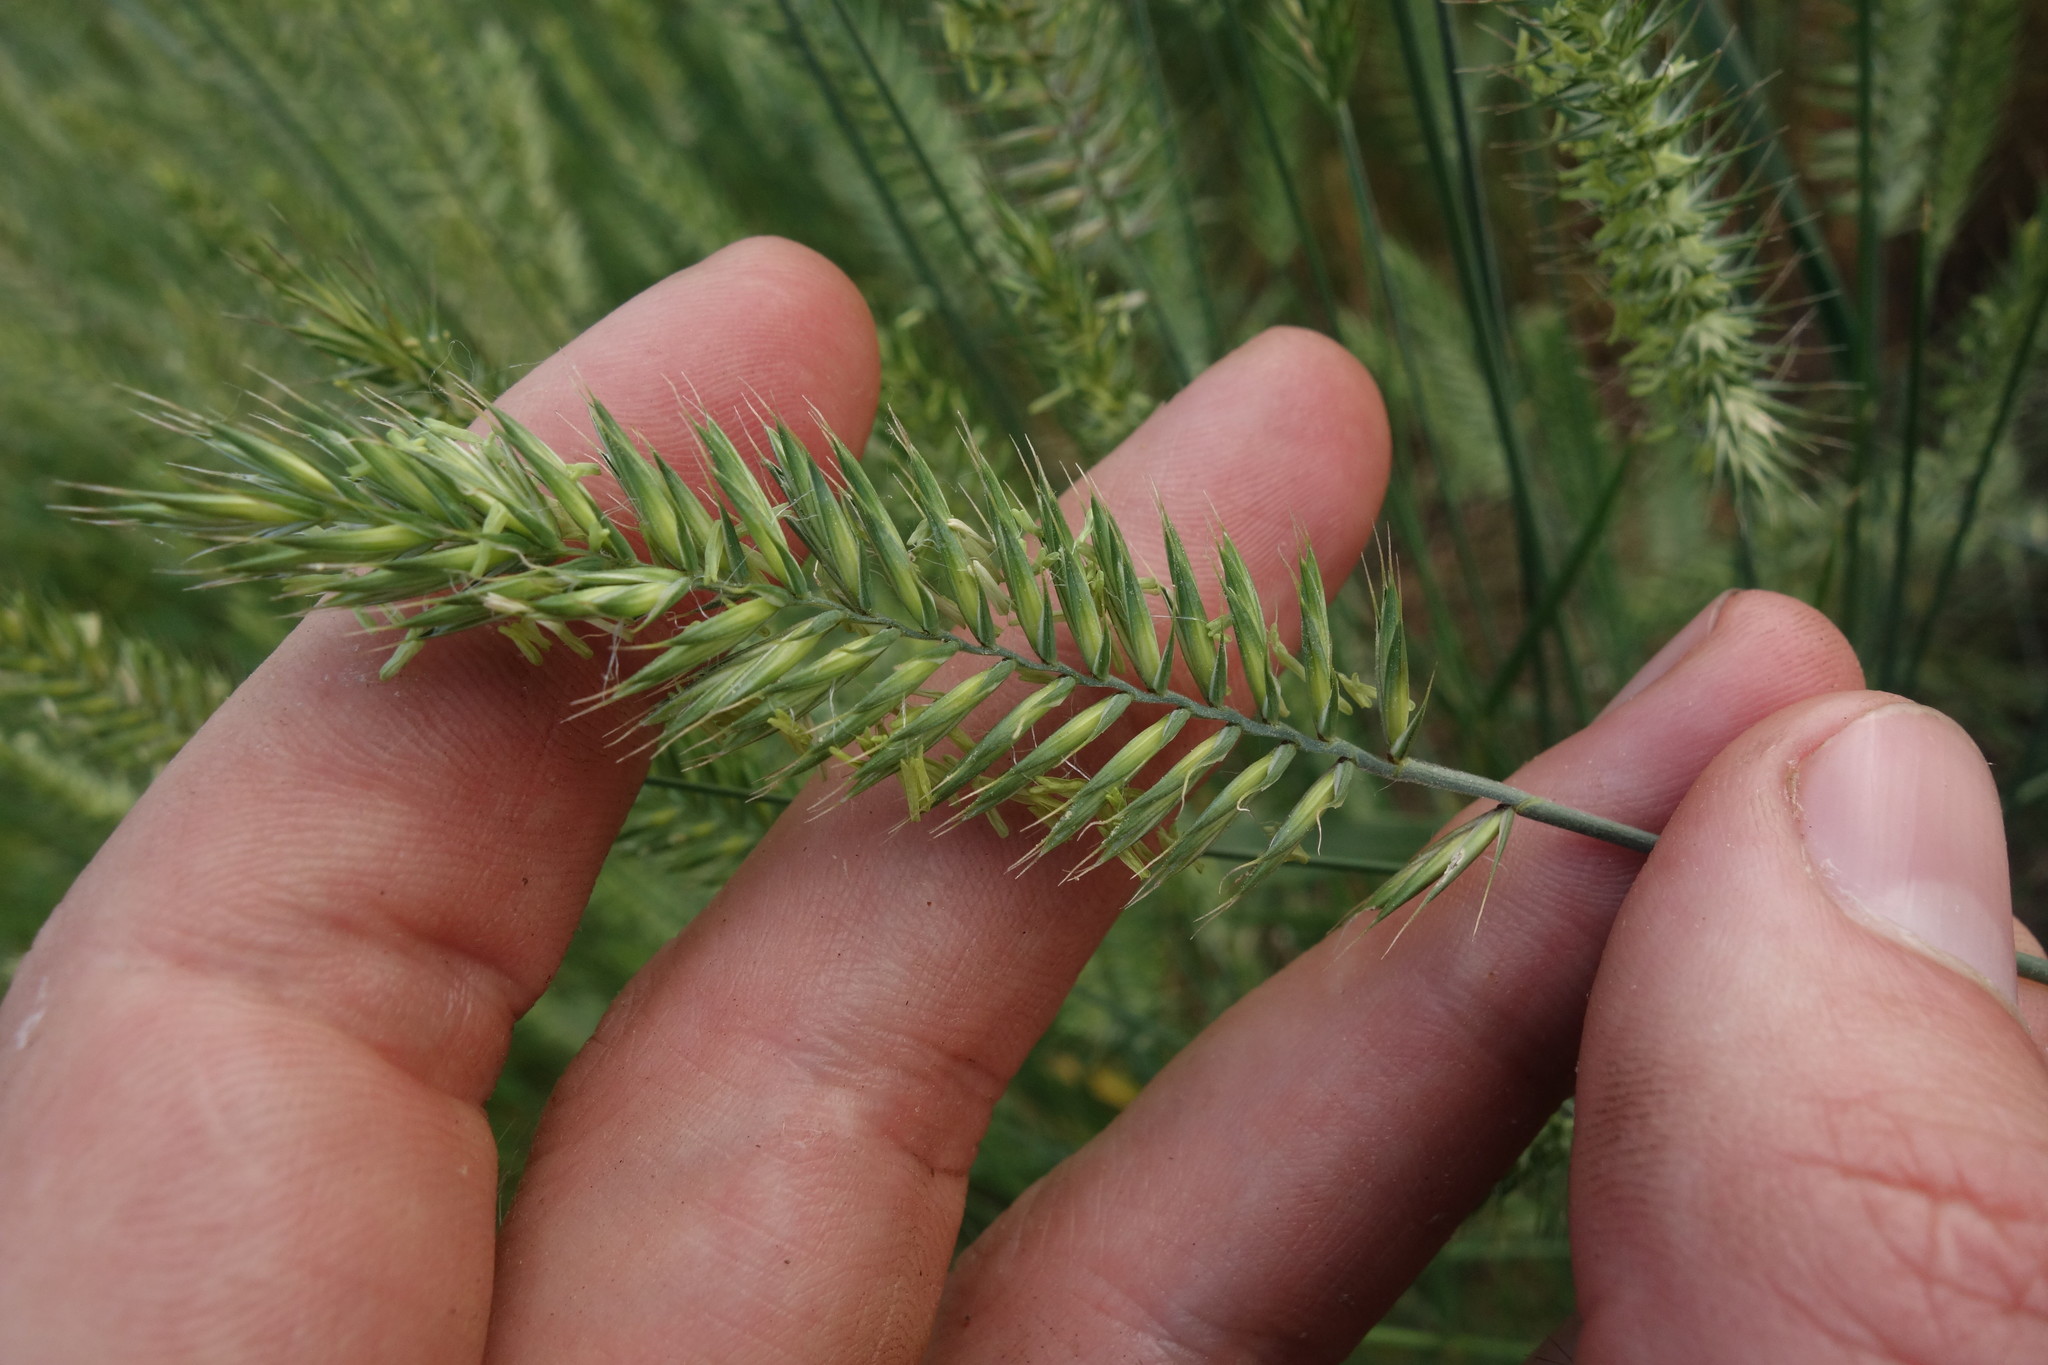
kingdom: Plantae
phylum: Tracheophyta
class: Liliopsida
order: Poales
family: Poaceae
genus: Agropyron
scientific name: Agropyron cristatum
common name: Crested wheatgrass
